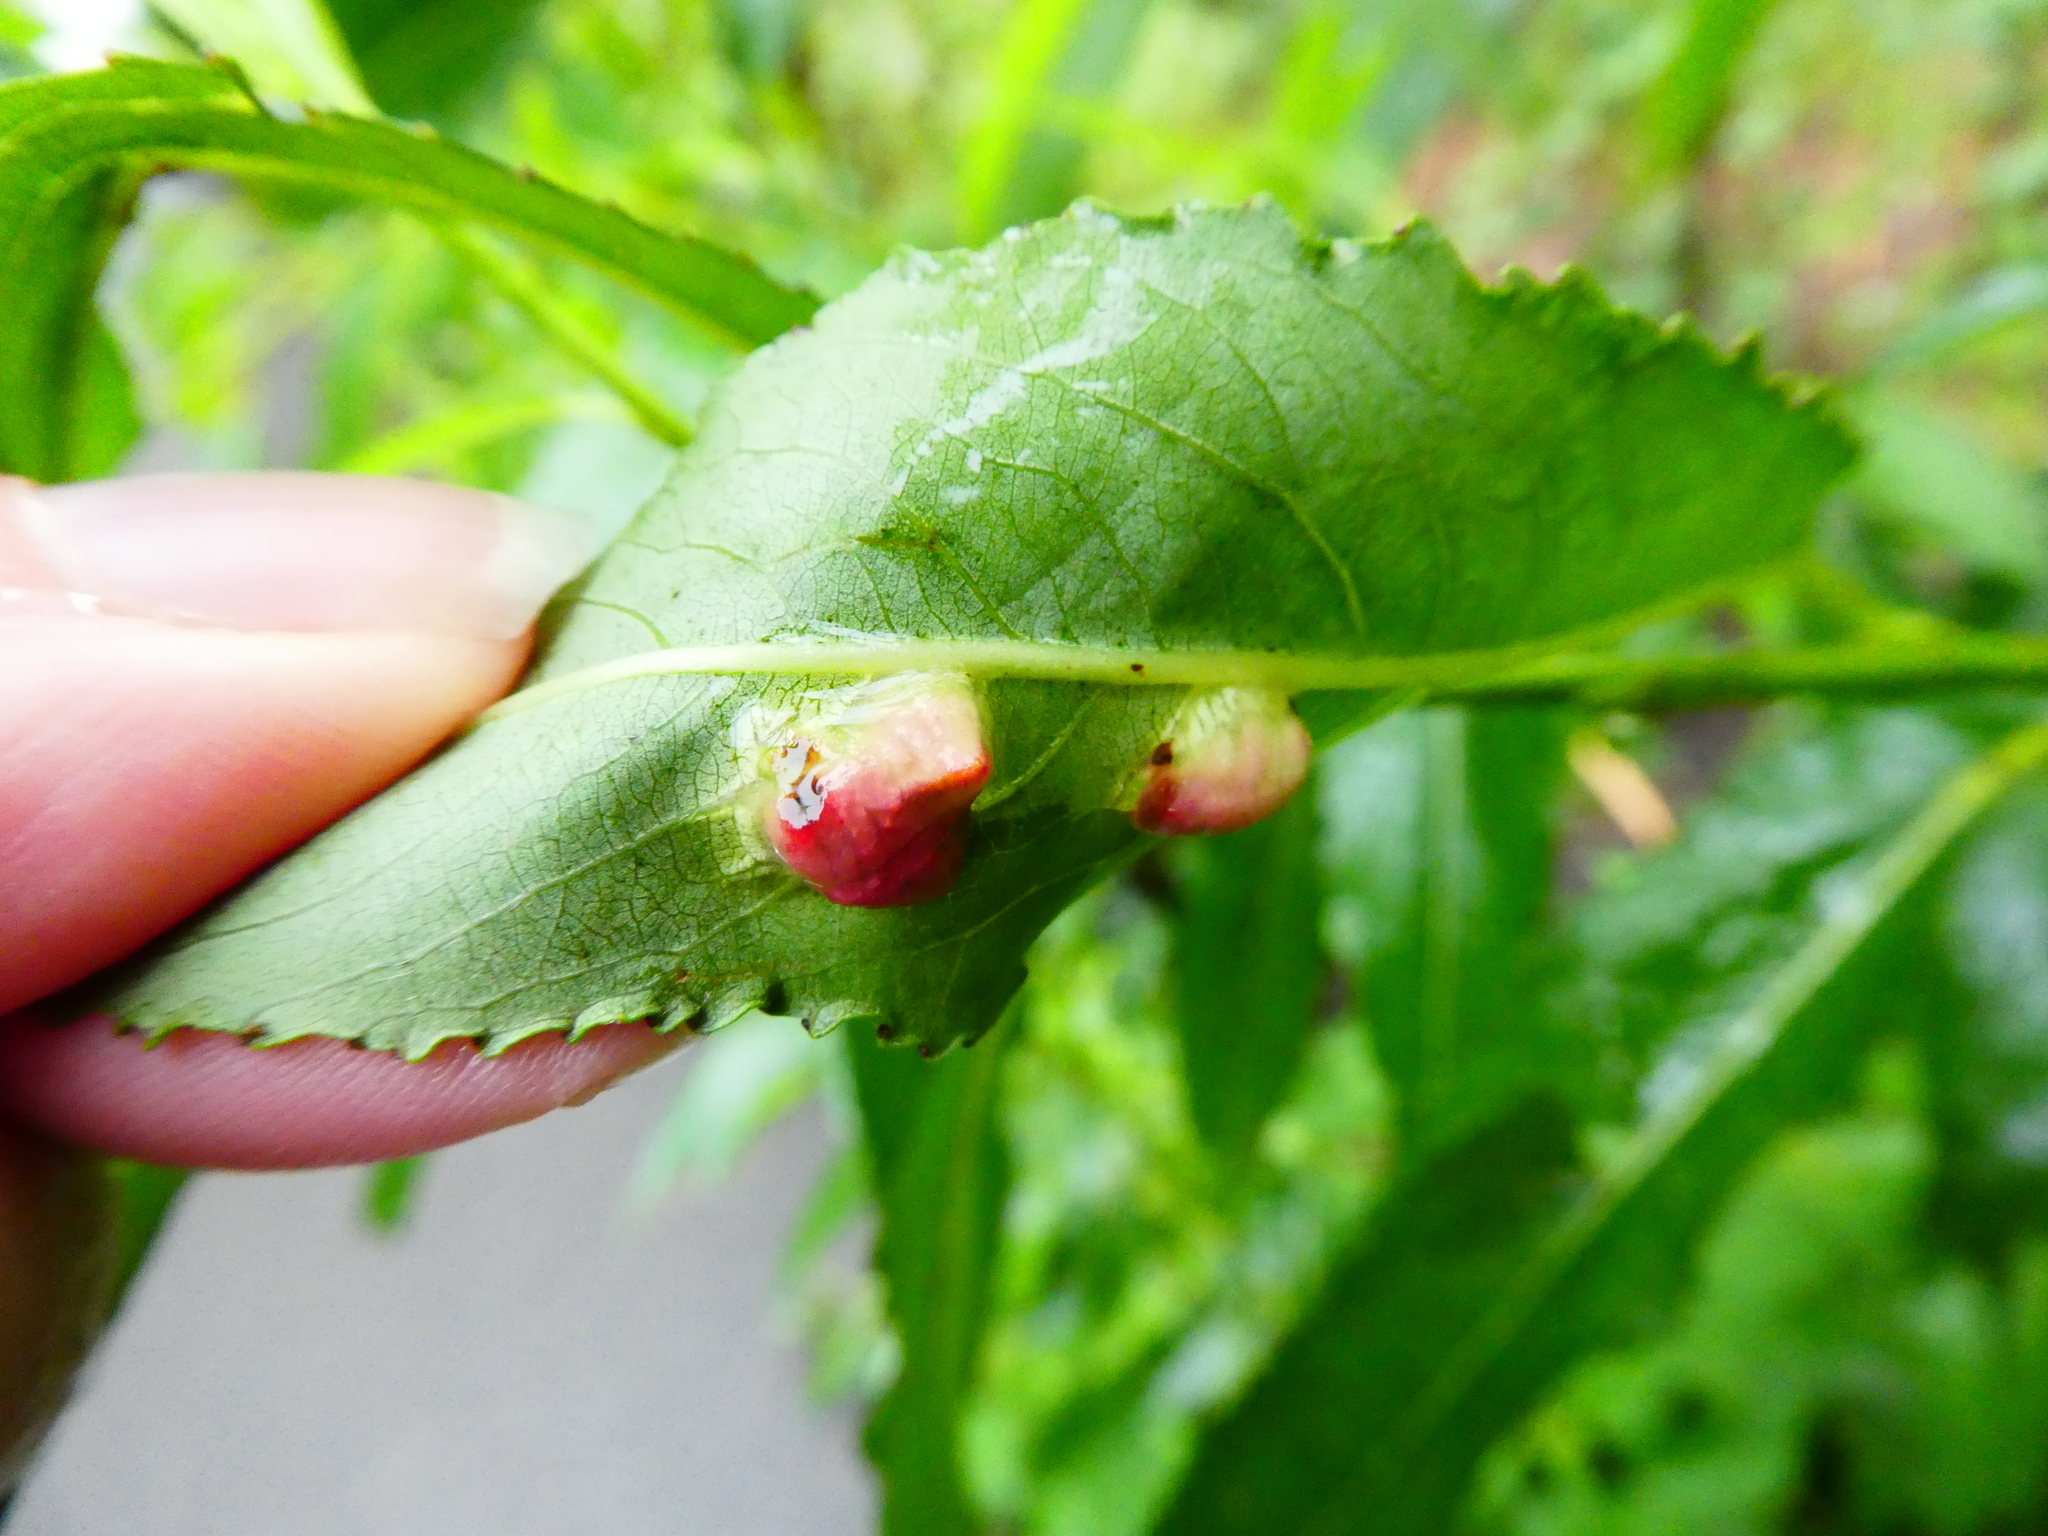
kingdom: Animalia
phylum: Arthropoda
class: Insecta
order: Hymenoptera
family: Tenthredinidae
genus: Pontania
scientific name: Pontania proxima
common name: Common sawfly
